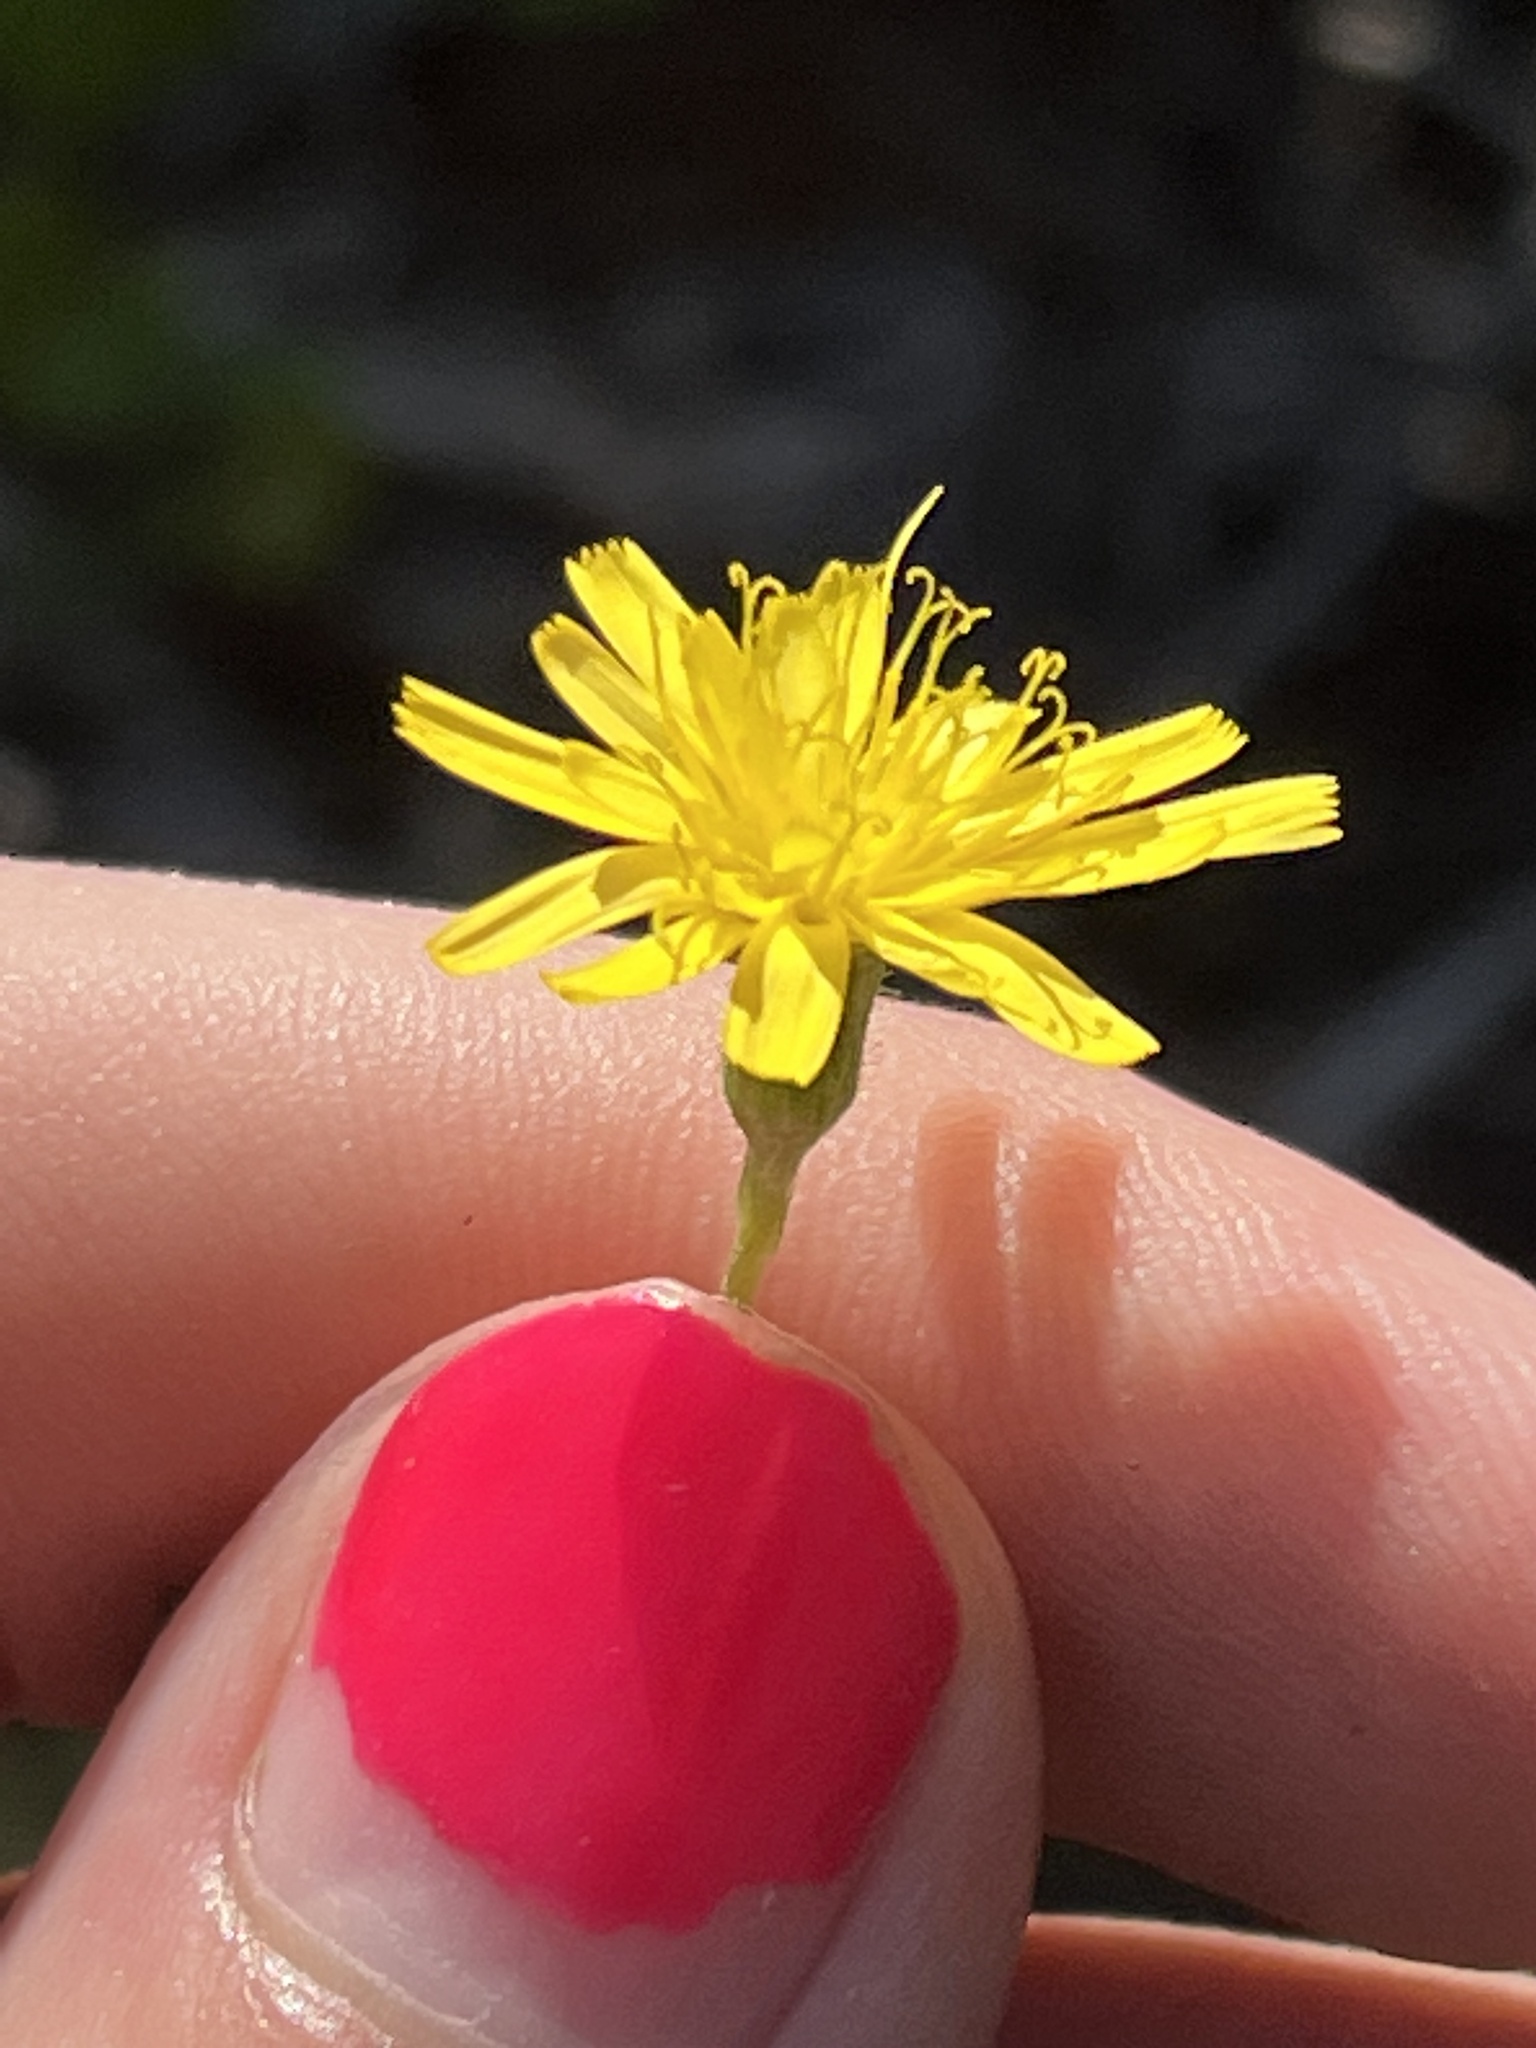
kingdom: Plantae
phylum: Tracheophyta
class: Magnoliopsida
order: Asterales
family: Asteraceae
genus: Hieracium
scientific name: Hieracium megacephalum
